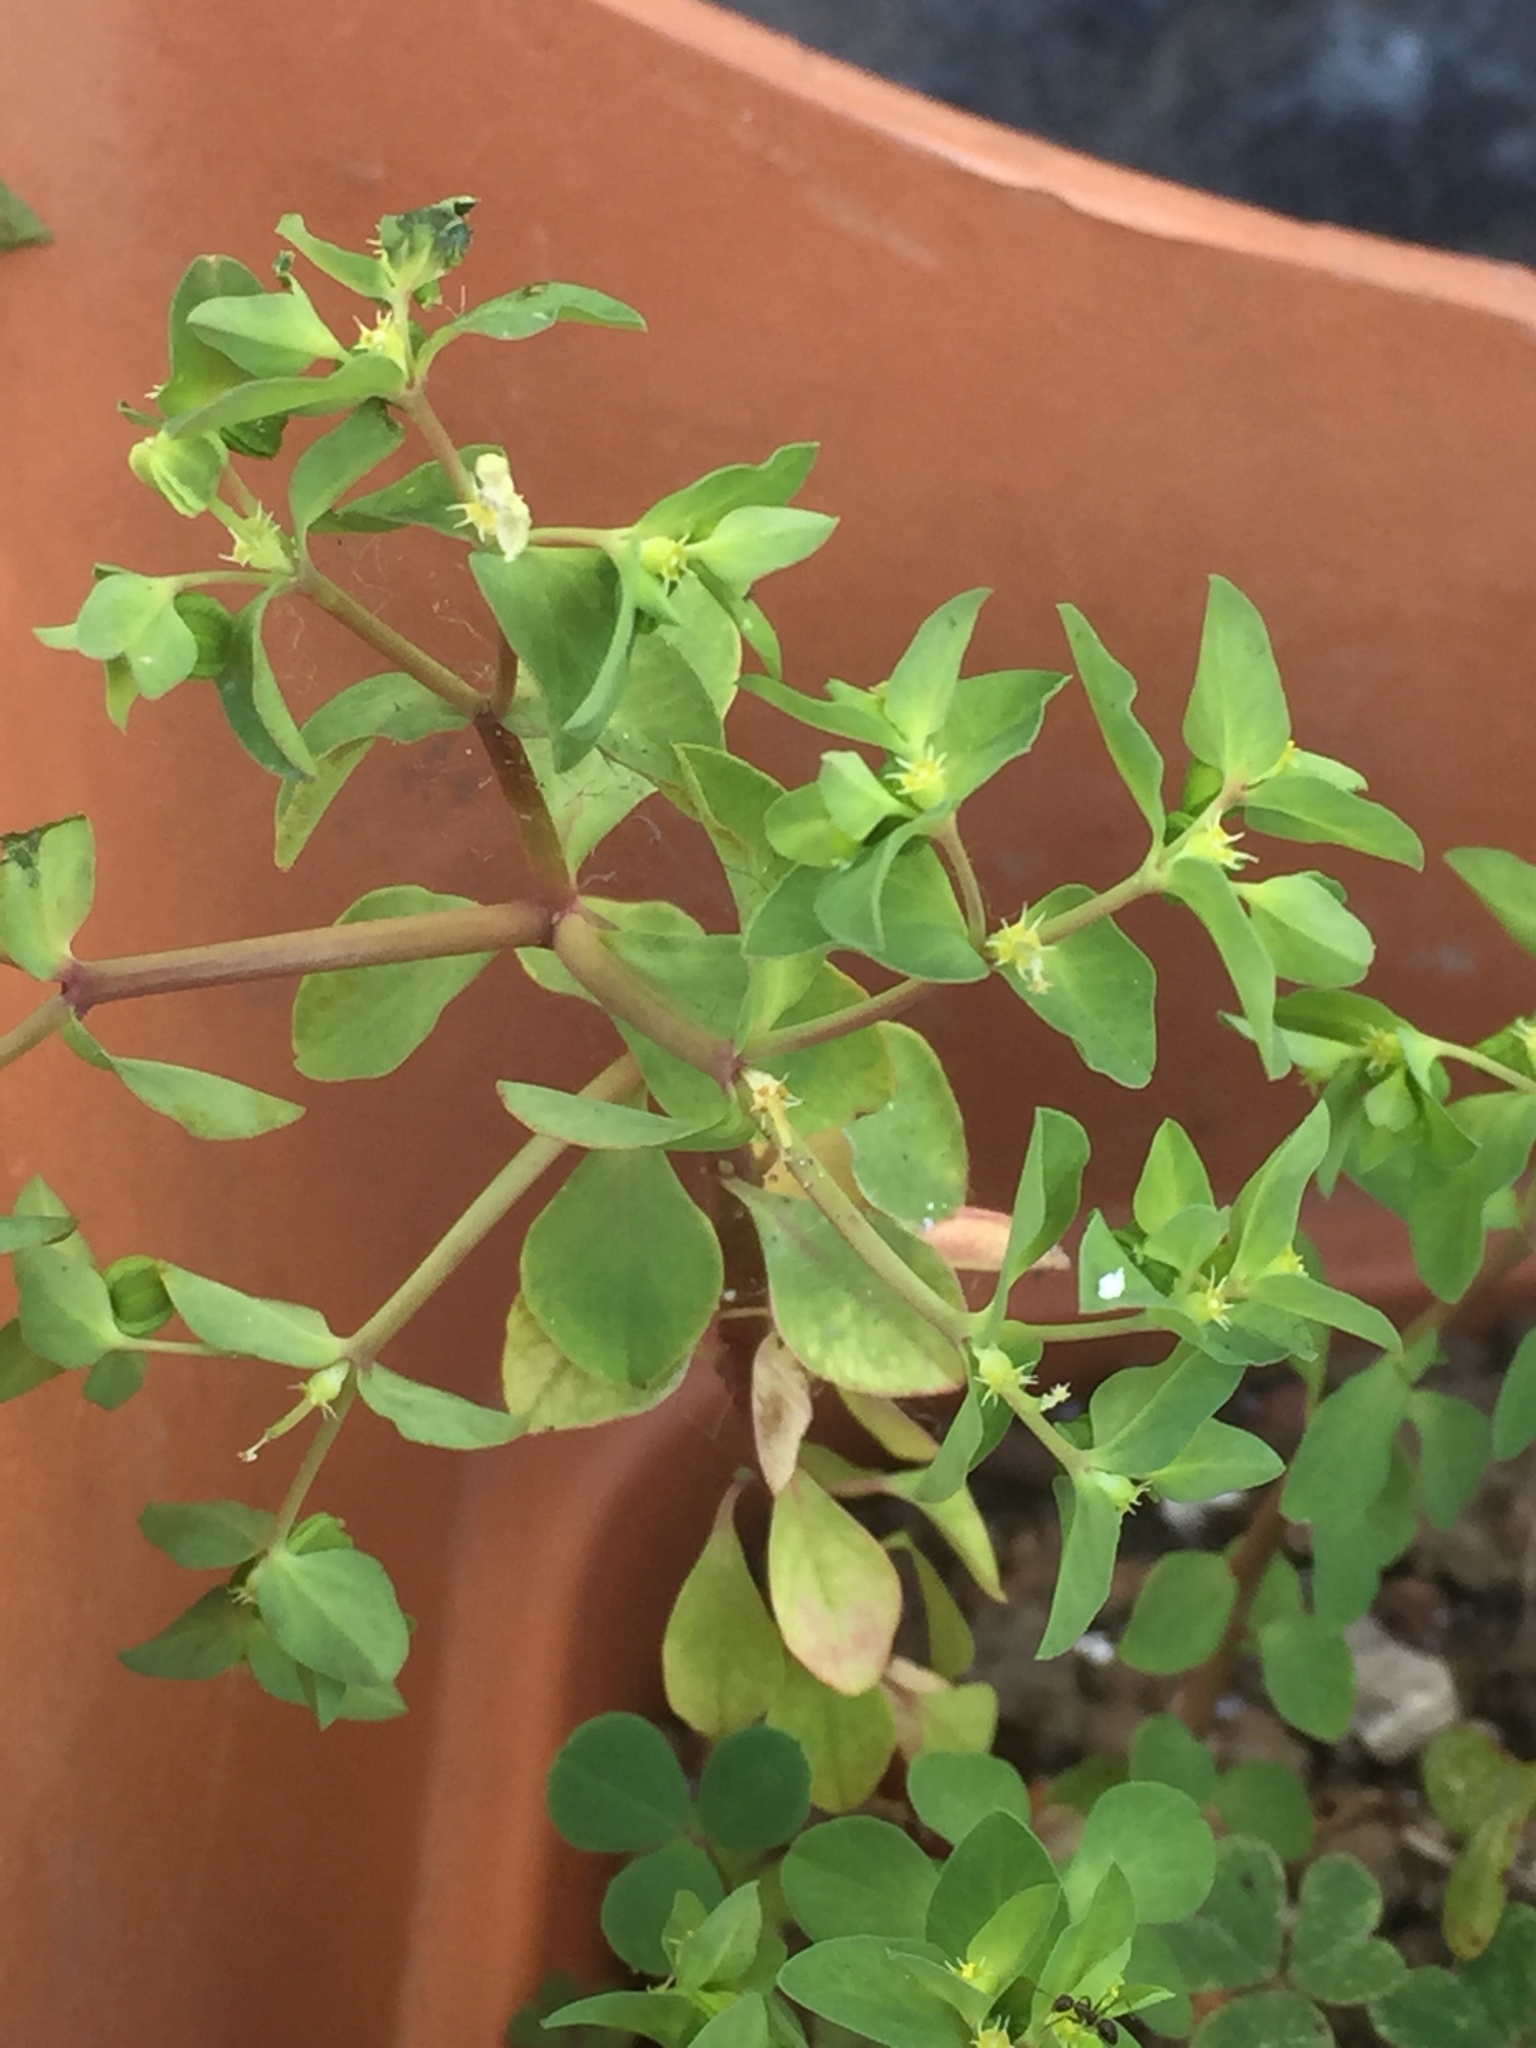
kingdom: Plantae
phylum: Tracheophyta
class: Magnoliopsida
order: Malpighiales
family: Euphorbiaceae
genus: Euphorbia
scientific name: Euphorbia peplus
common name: Petty spurge
